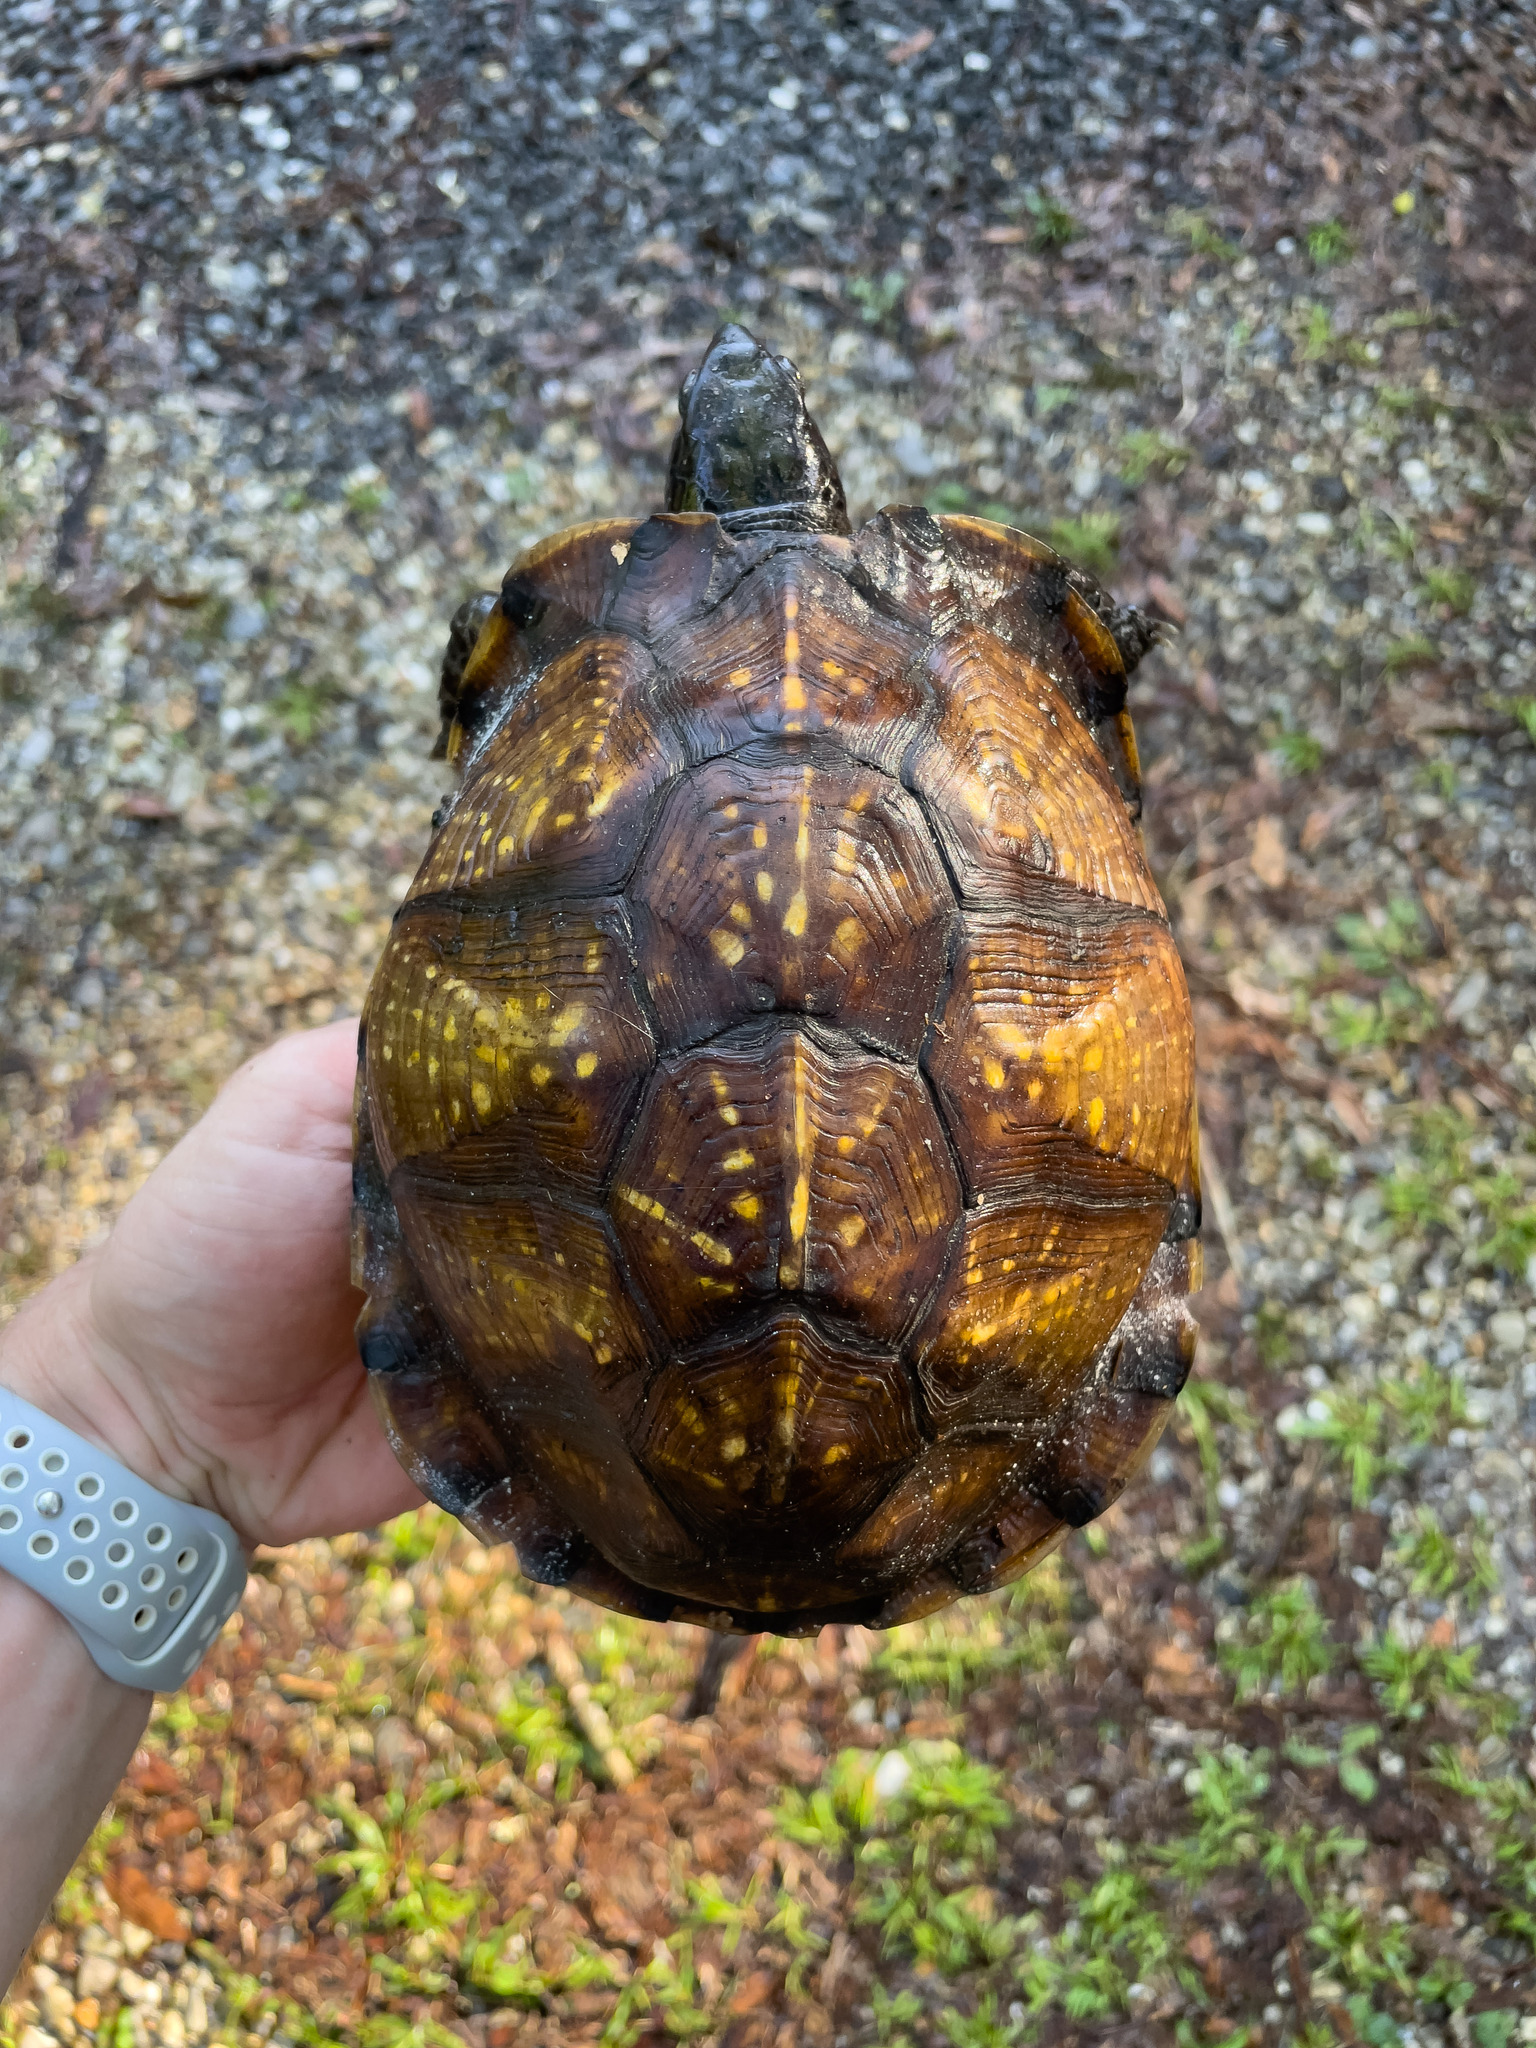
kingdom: Animalia
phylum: Chordata
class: Testudines
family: Emydidae
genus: Terrapene
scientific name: Terrapene carolina
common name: Common box turtle
